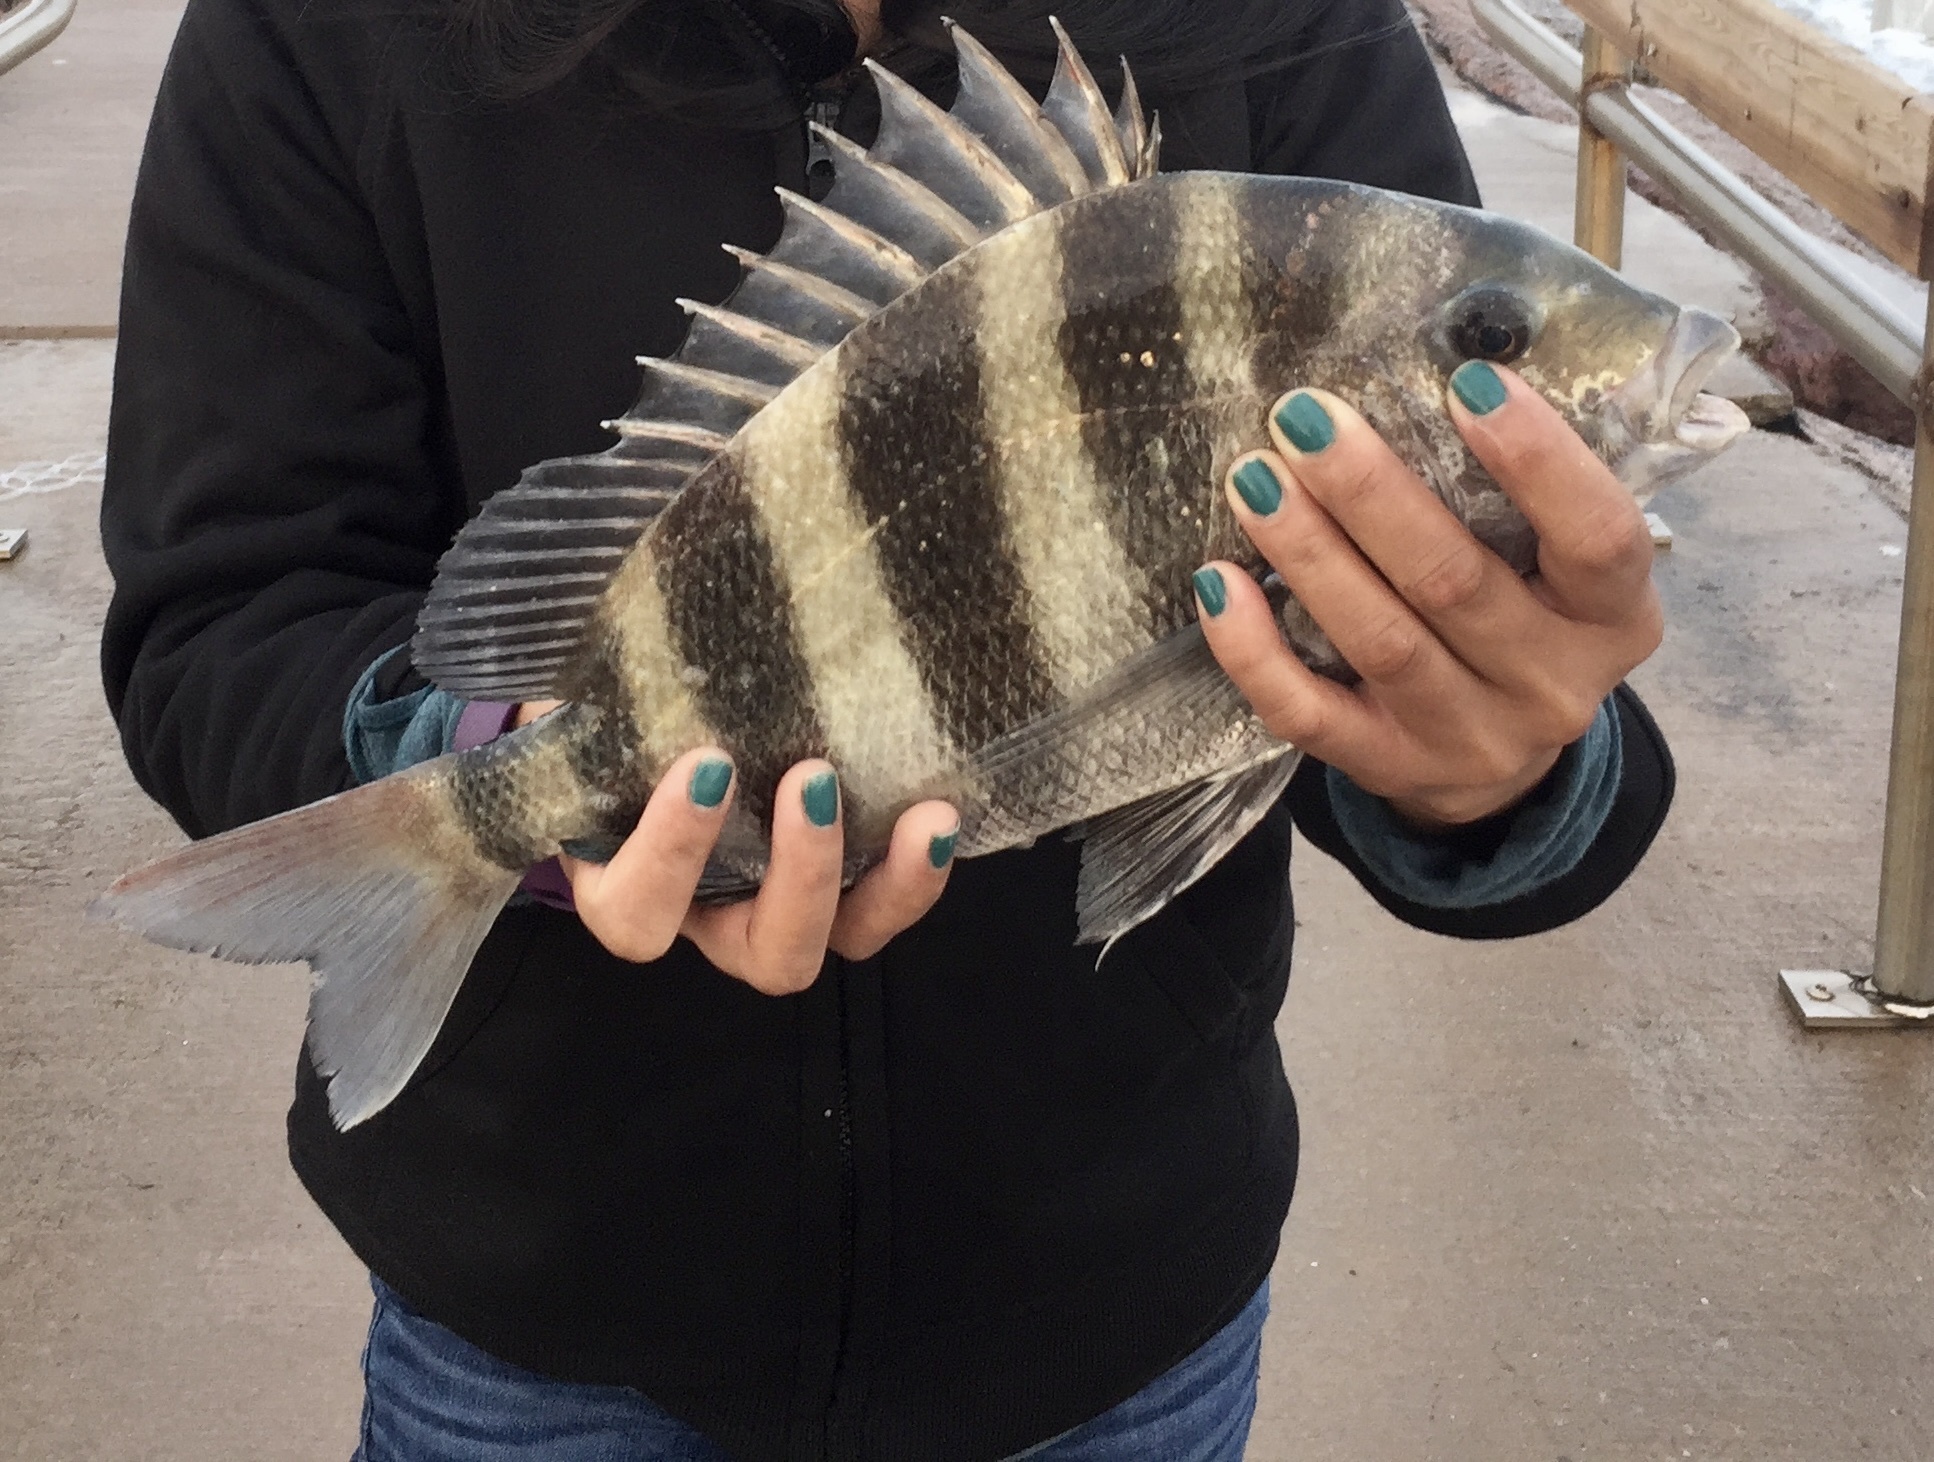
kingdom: Animalia
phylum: Chordata
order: Perciformes
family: Sparidae
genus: Archosargus
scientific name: Archosargus probatocephalus
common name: Sheepshead
